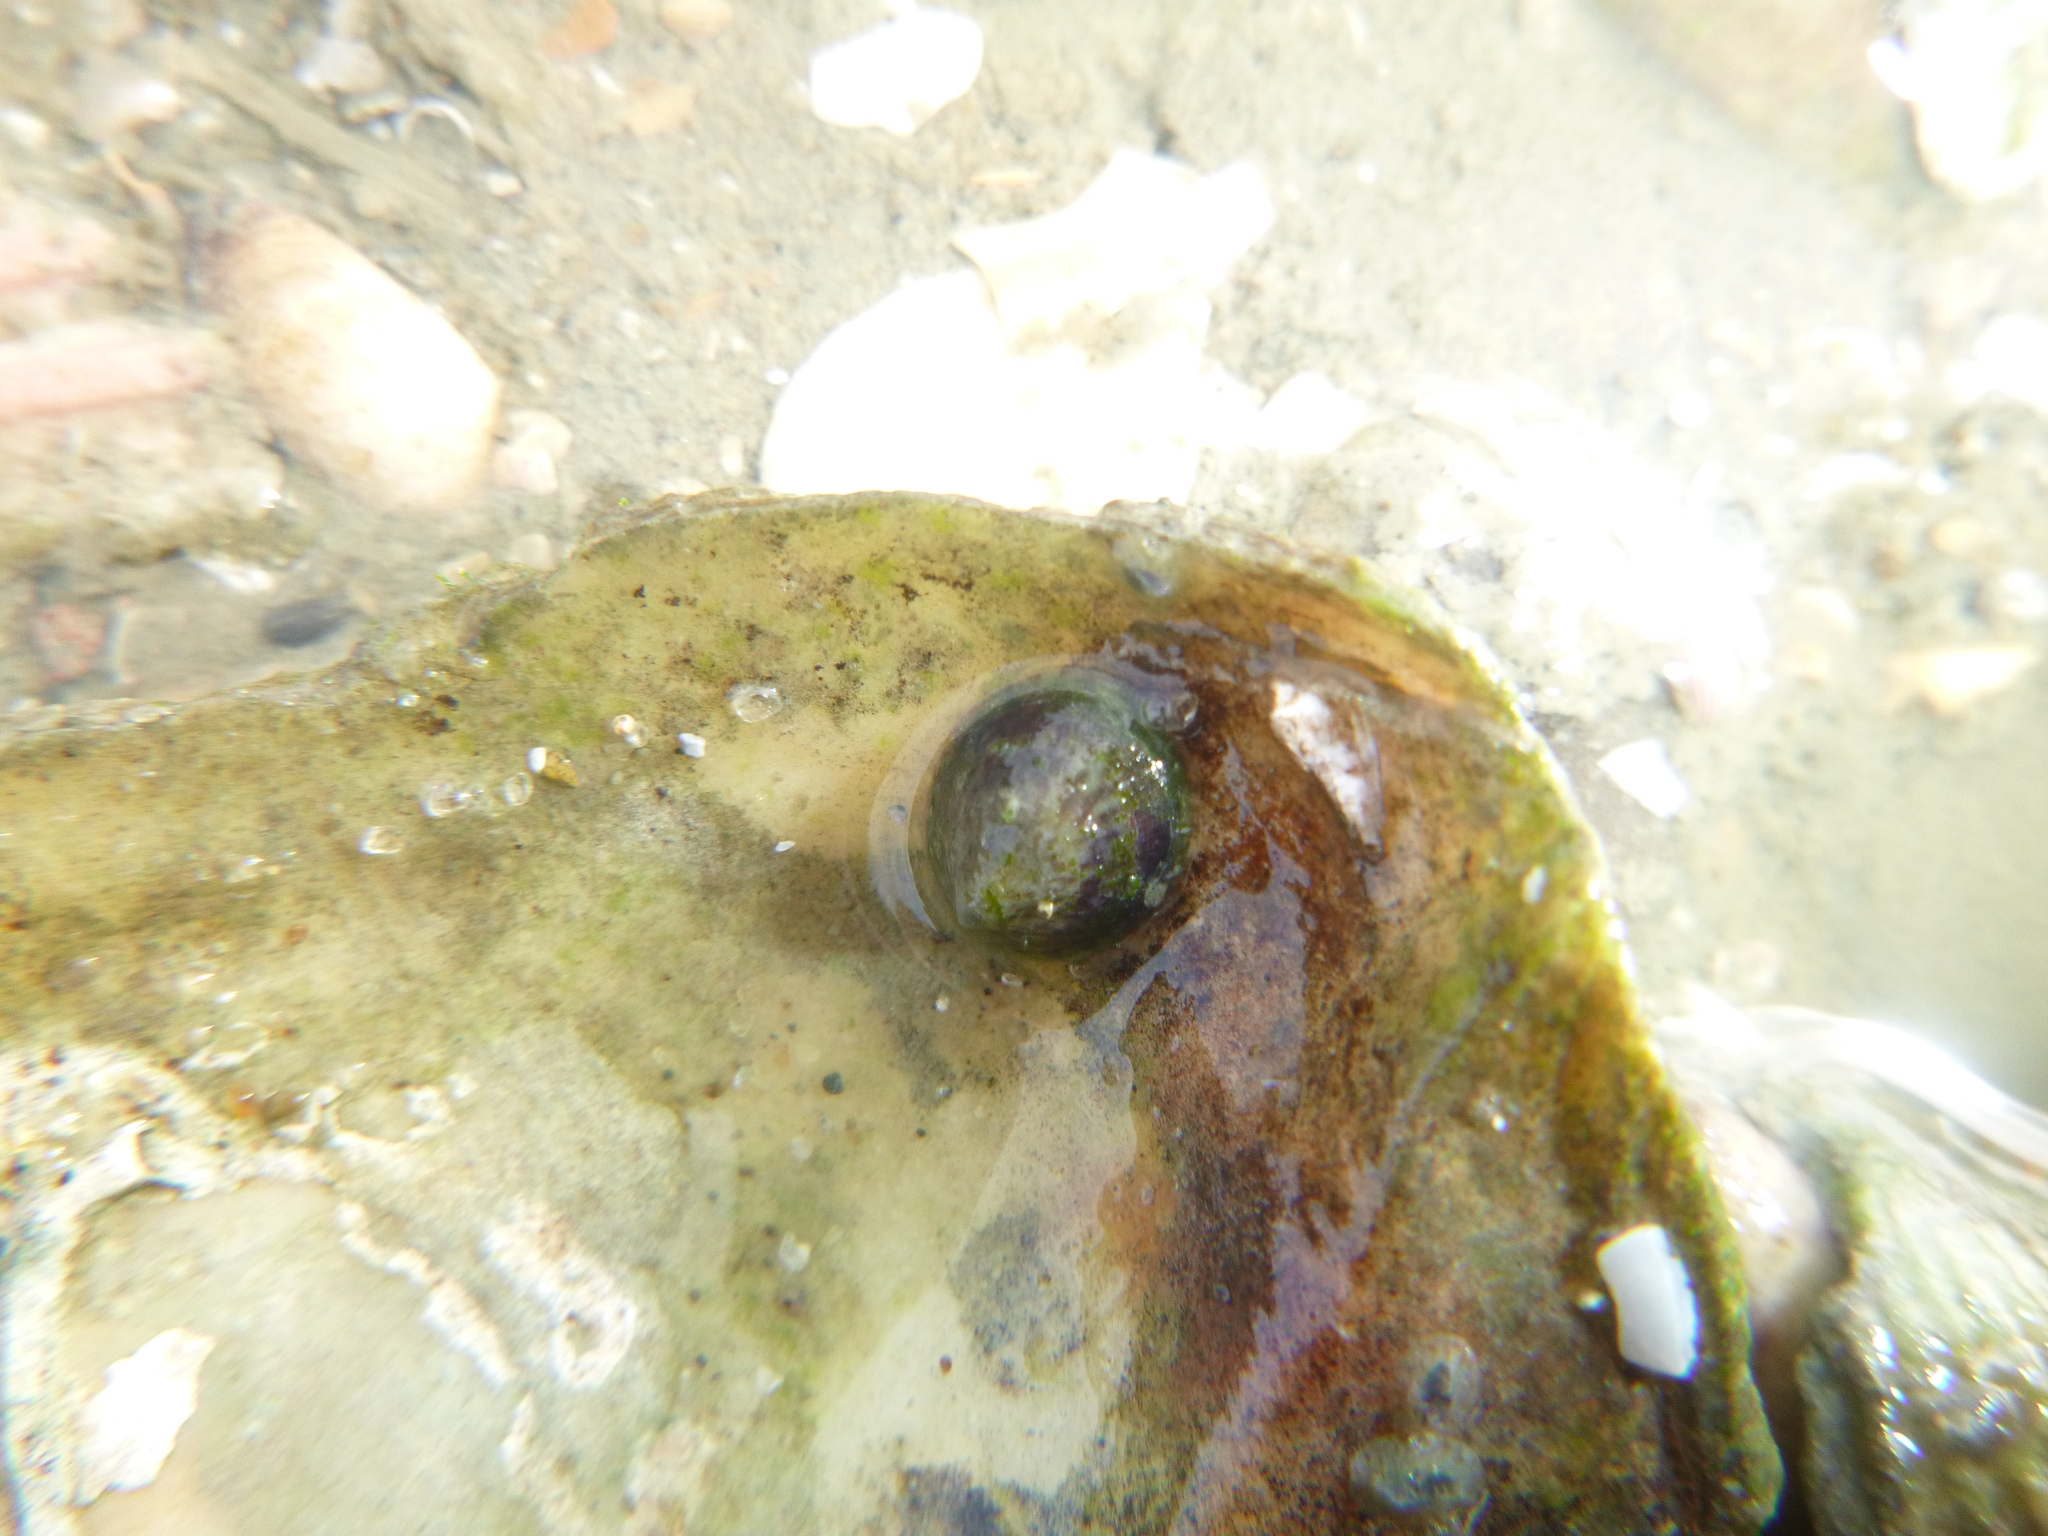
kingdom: Animalia
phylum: Mollusca
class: Gastropoda
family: Lottiidae
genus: Notoacmea
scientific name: Notoacmea
